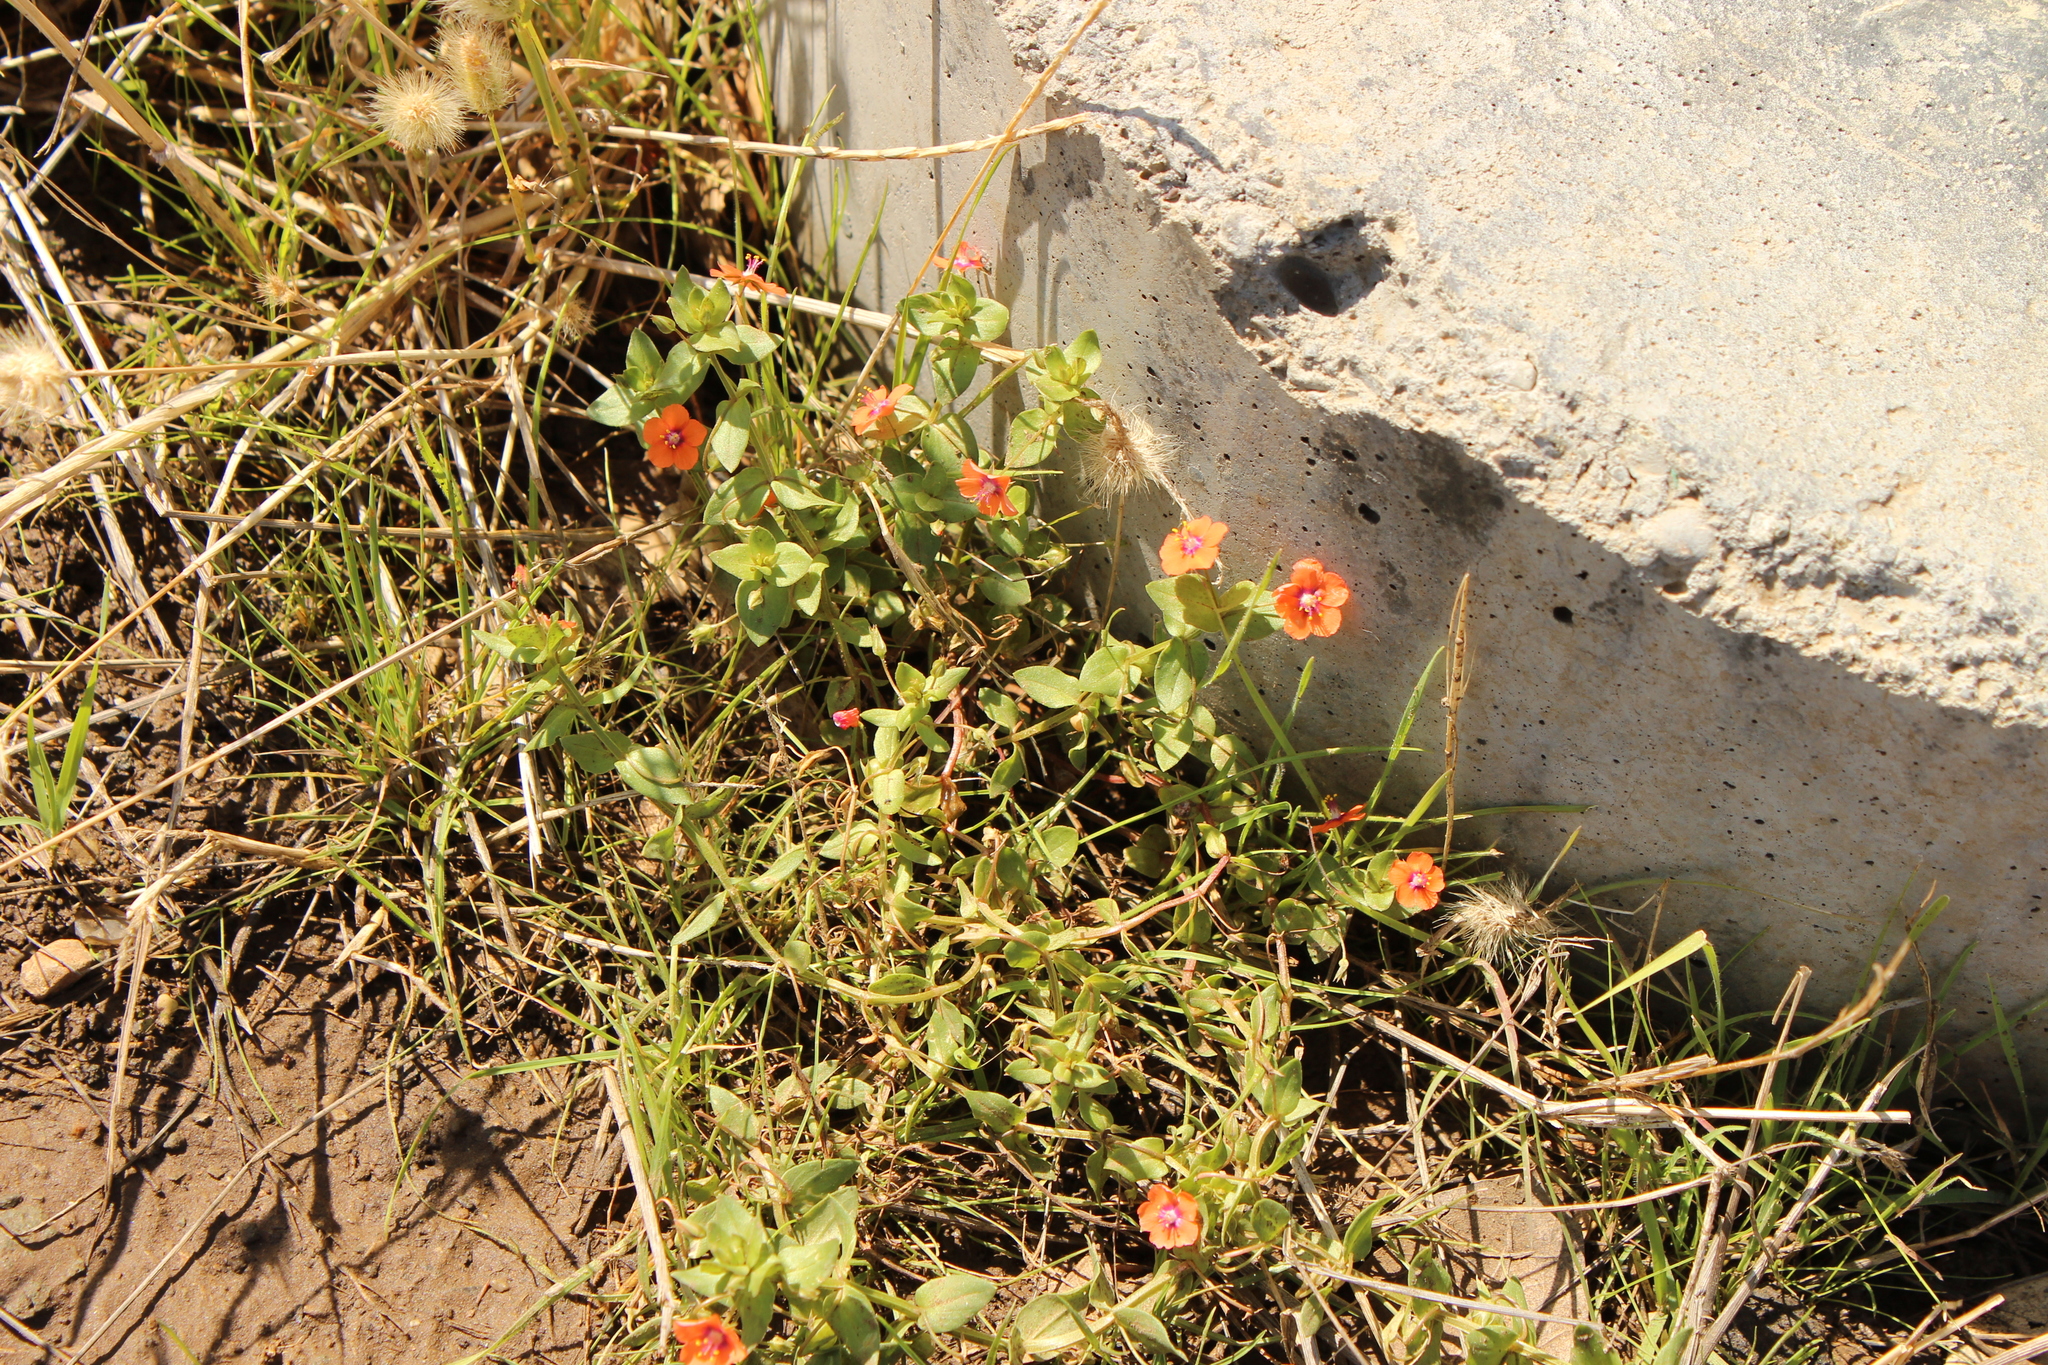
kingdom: Plantae
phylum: Tracheophyta
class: Magnoliopsida
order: Ericales
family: Primulaceae
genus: Lysimachia
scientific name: Lysimachia arvensis
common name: Scarlet pimpernel
